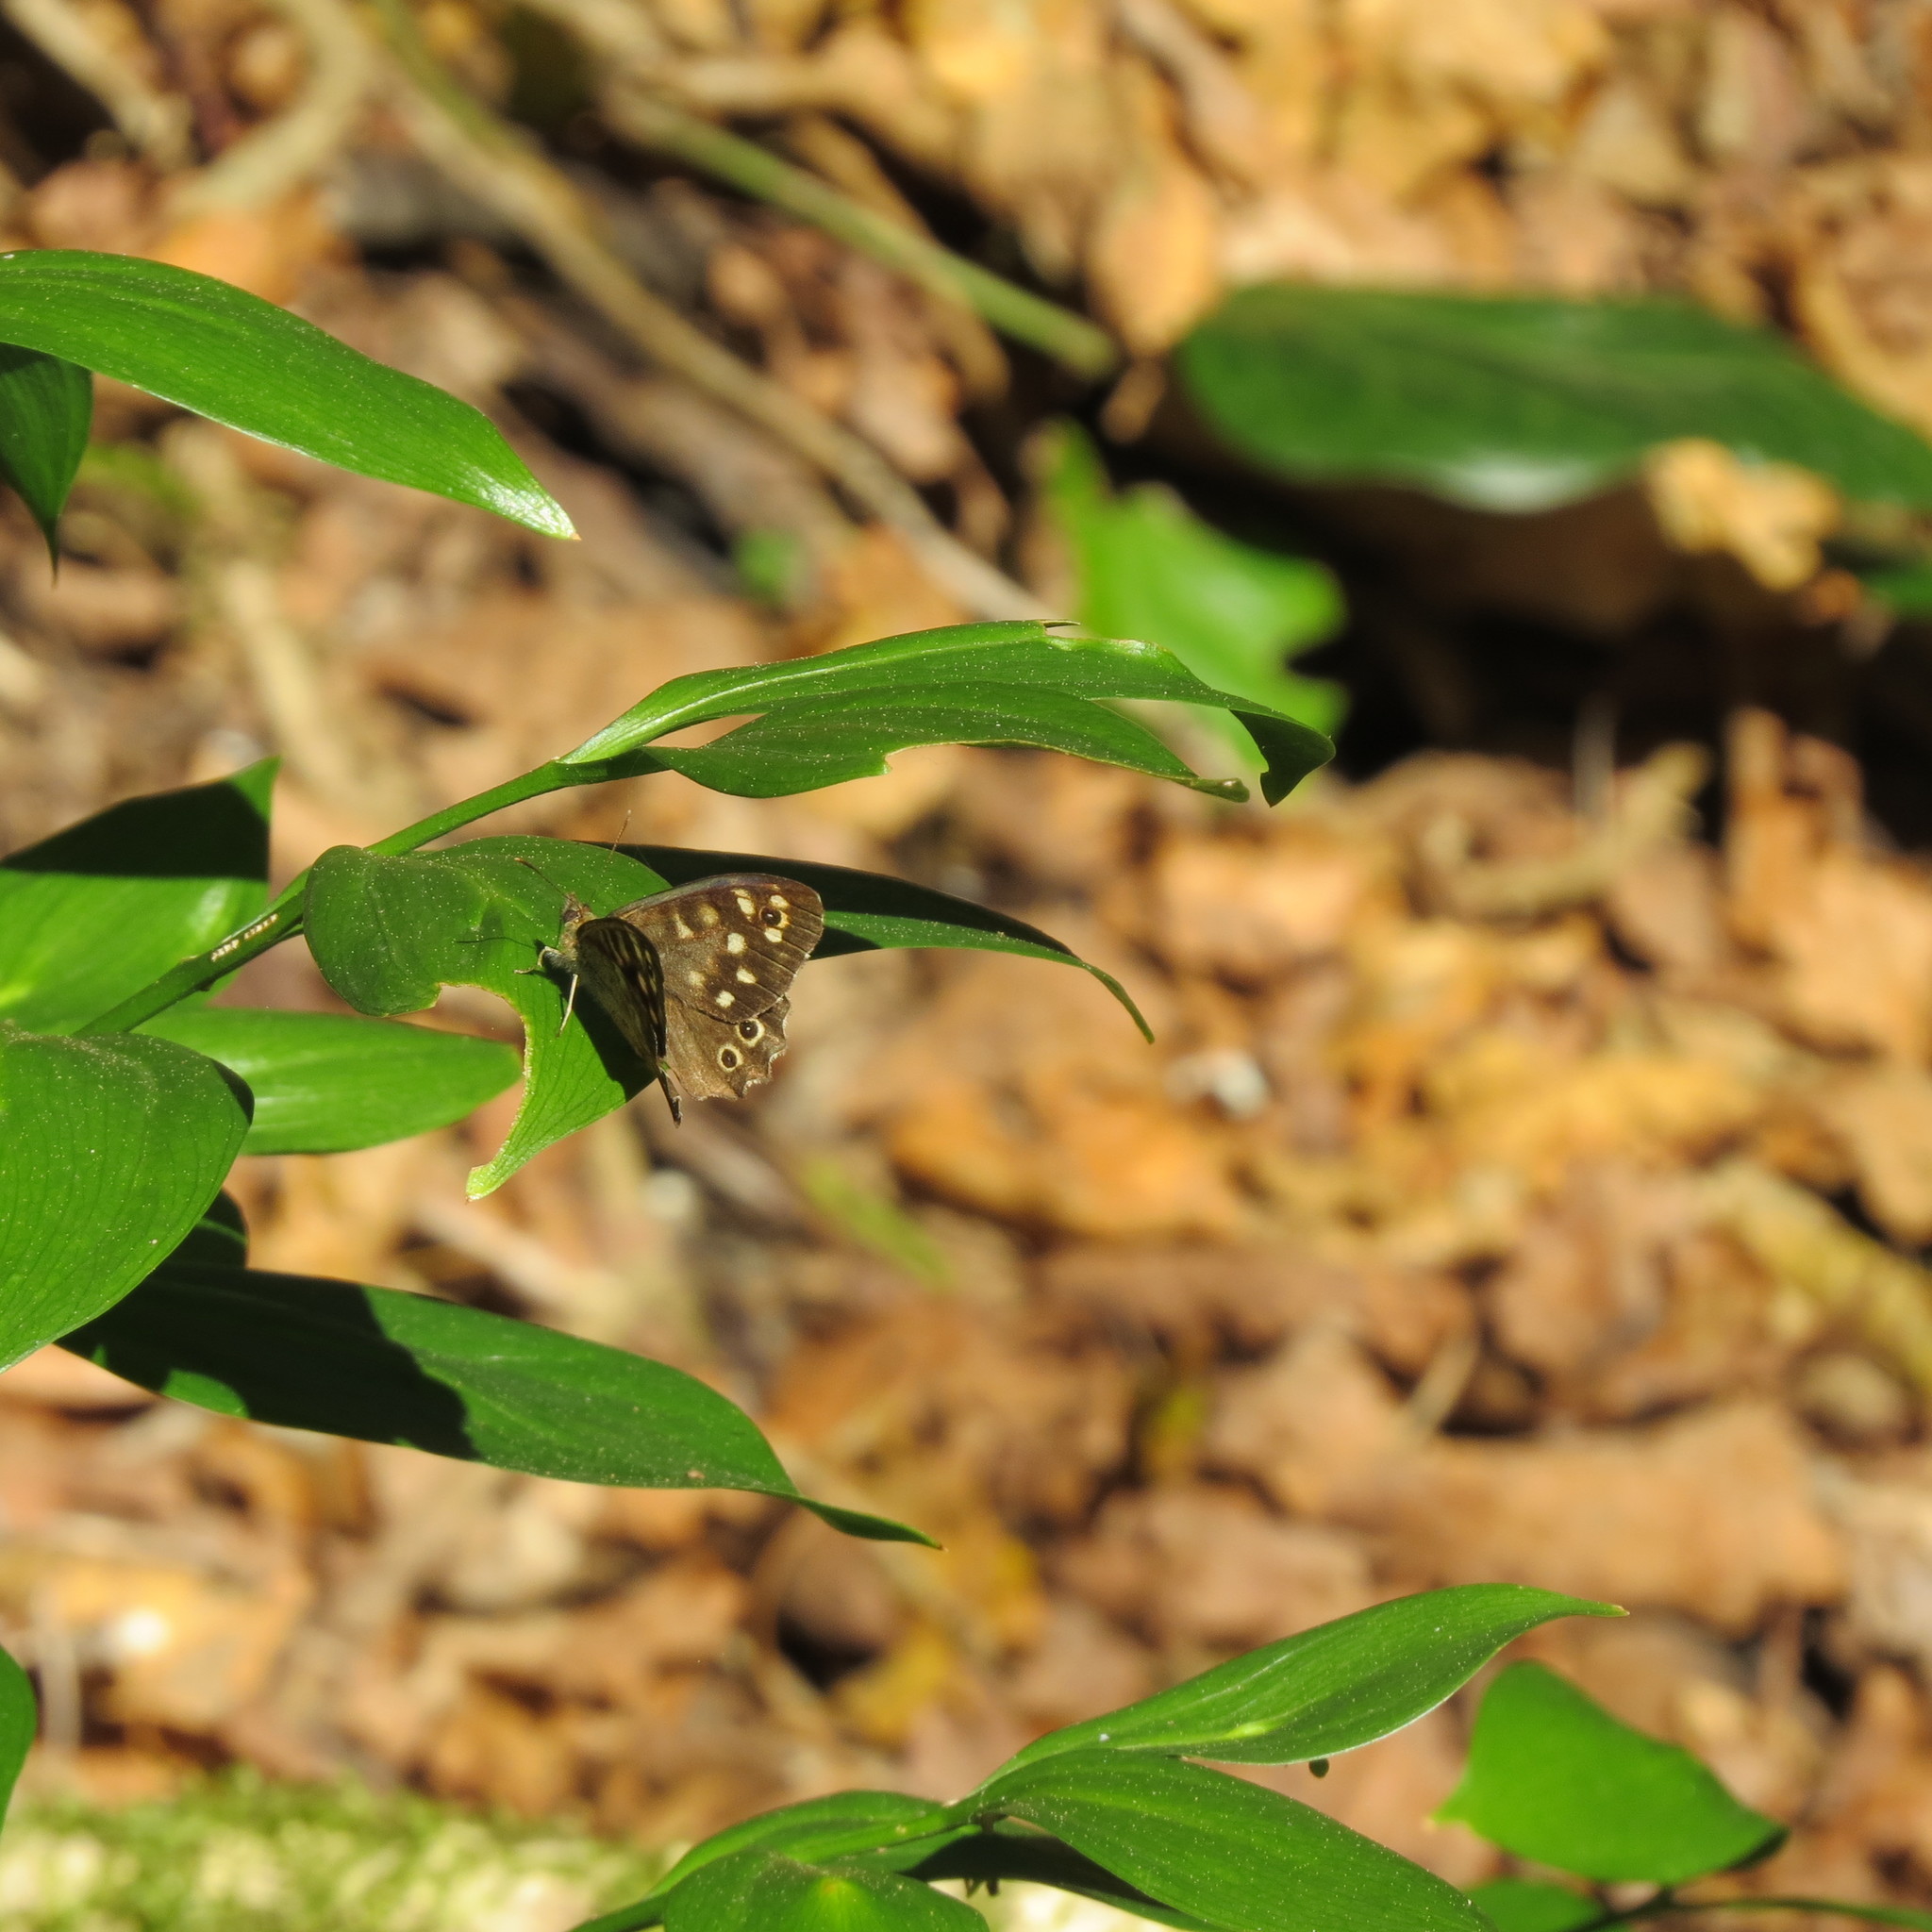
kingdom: Animalia
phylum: Arthropoda
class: Insecta
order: Lepidoptera
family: Nymphalidae
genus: Pararge
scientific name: Pararge aegeria
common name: Speckled wood
